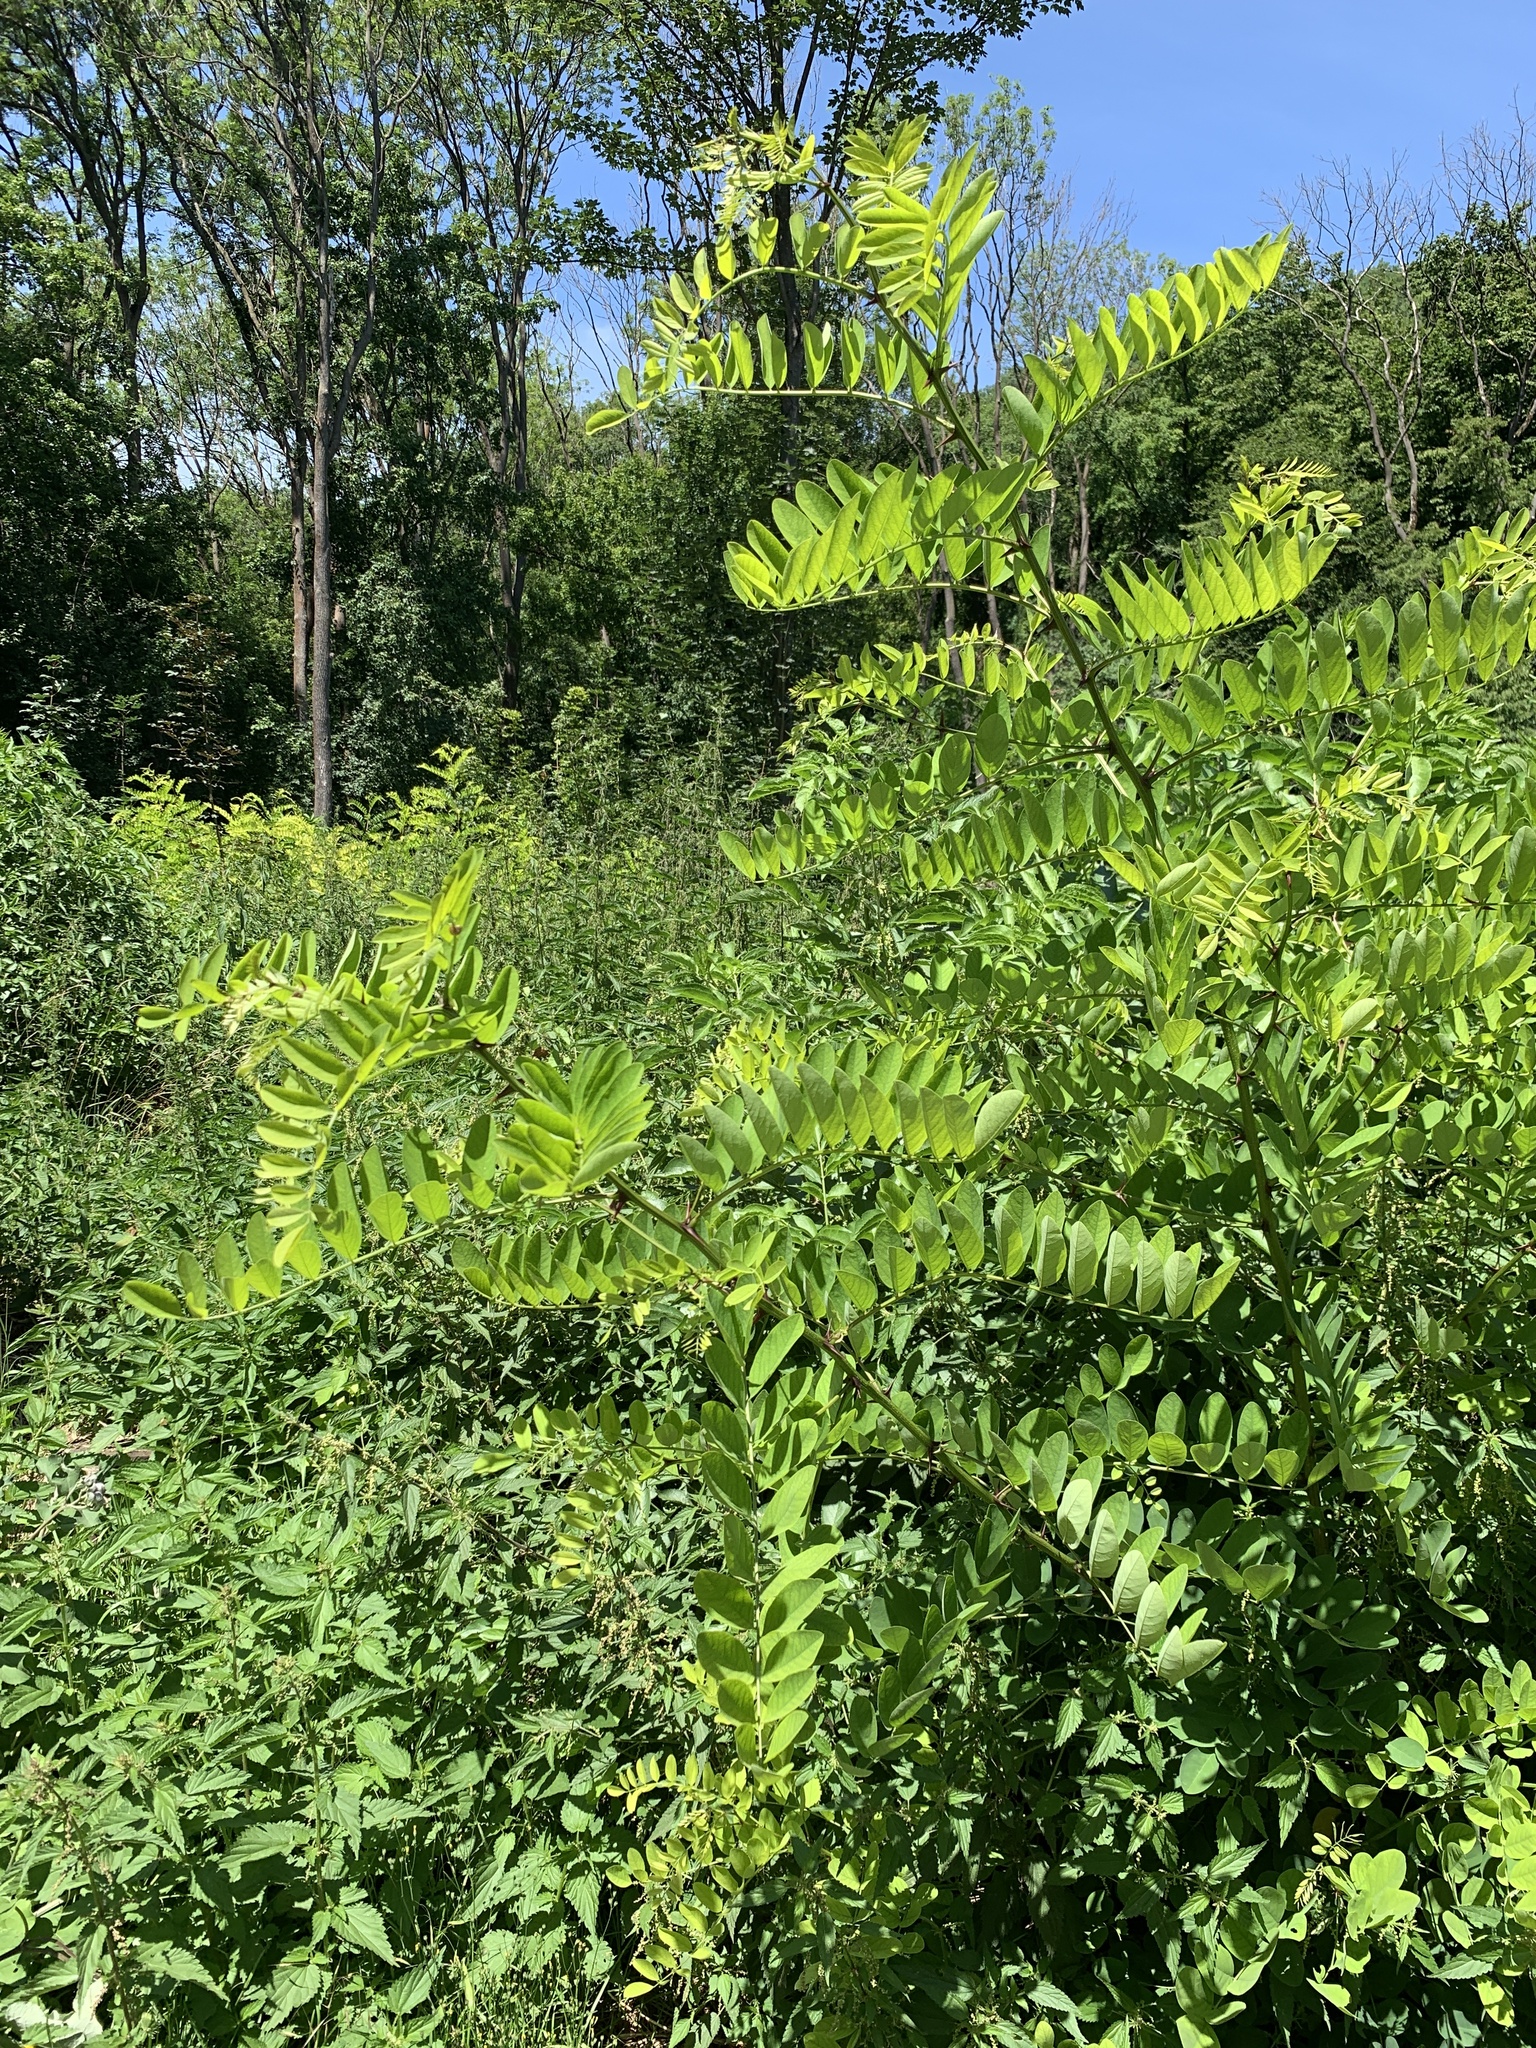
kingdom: Plantae
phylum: Tracheophyta
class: Magnoliopsida
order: Fabales
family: Fabaceae
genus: Robinia
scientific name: Robinia pseudoacacia
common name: Black locust
